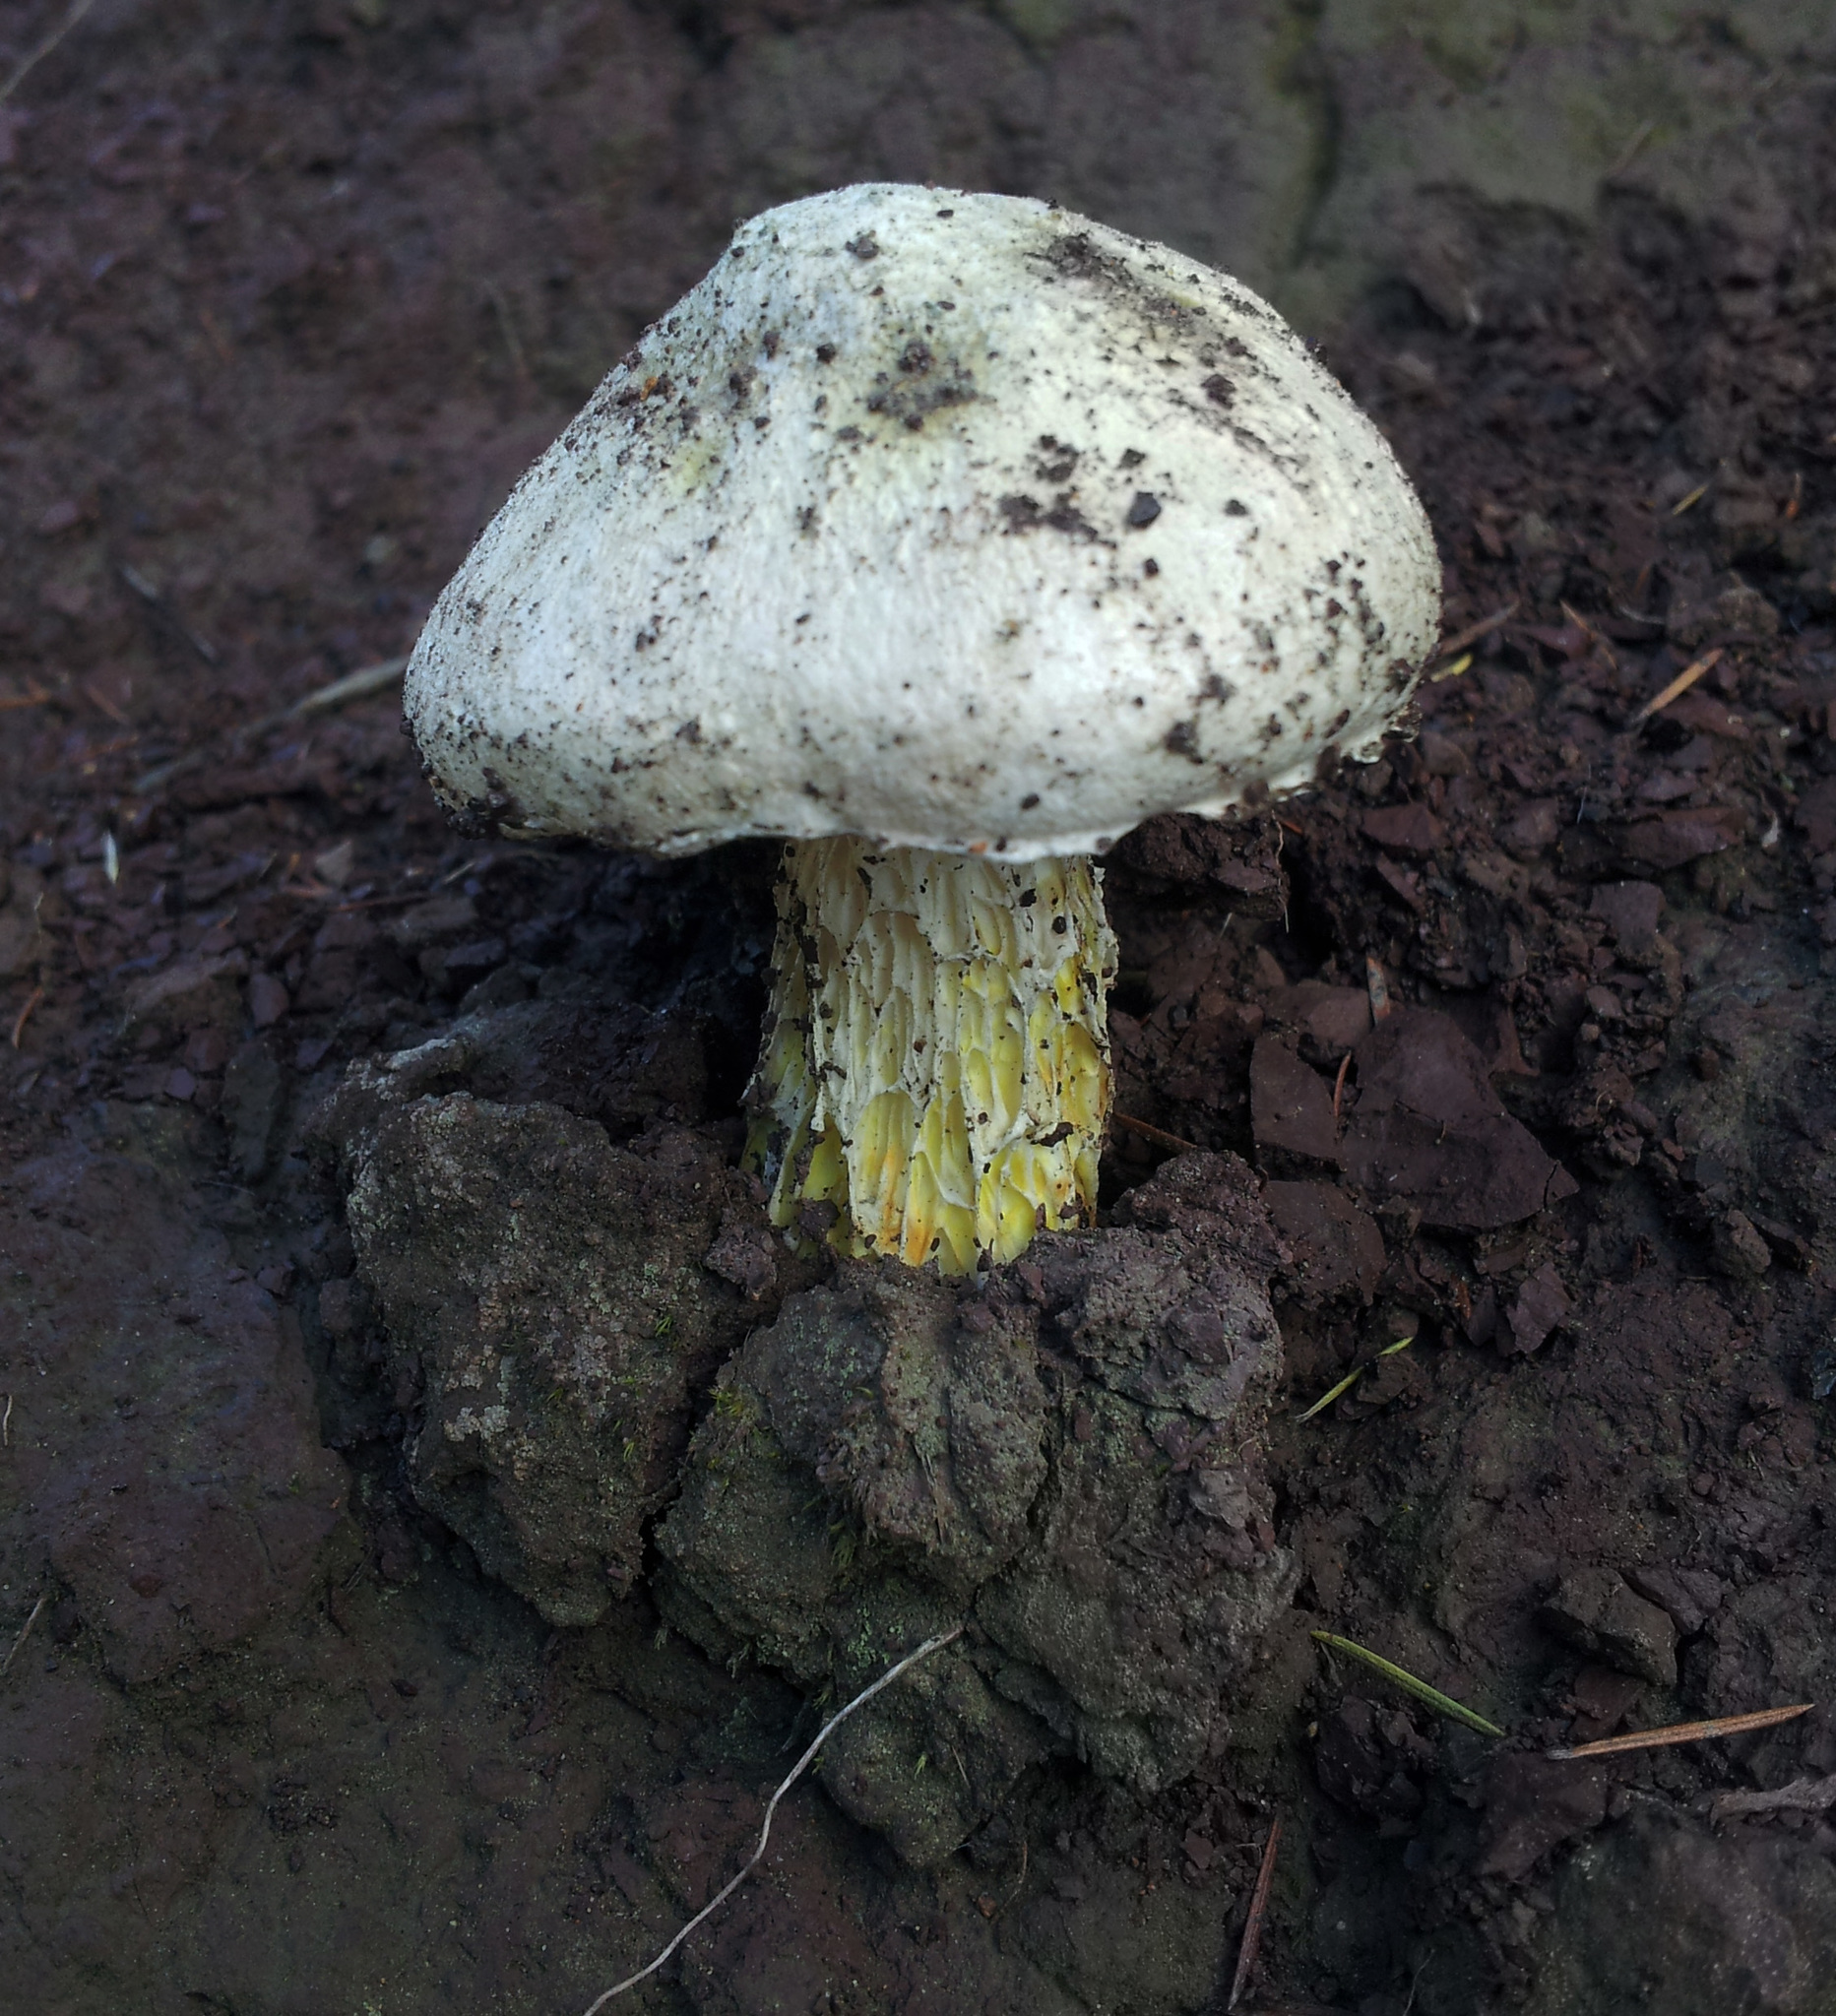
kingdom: Fungi
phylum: Basidiomycota
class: Agaricomycetes
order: Boletales
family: Boletaceae
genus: Fistulinella
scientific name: Fistulinella nivea
